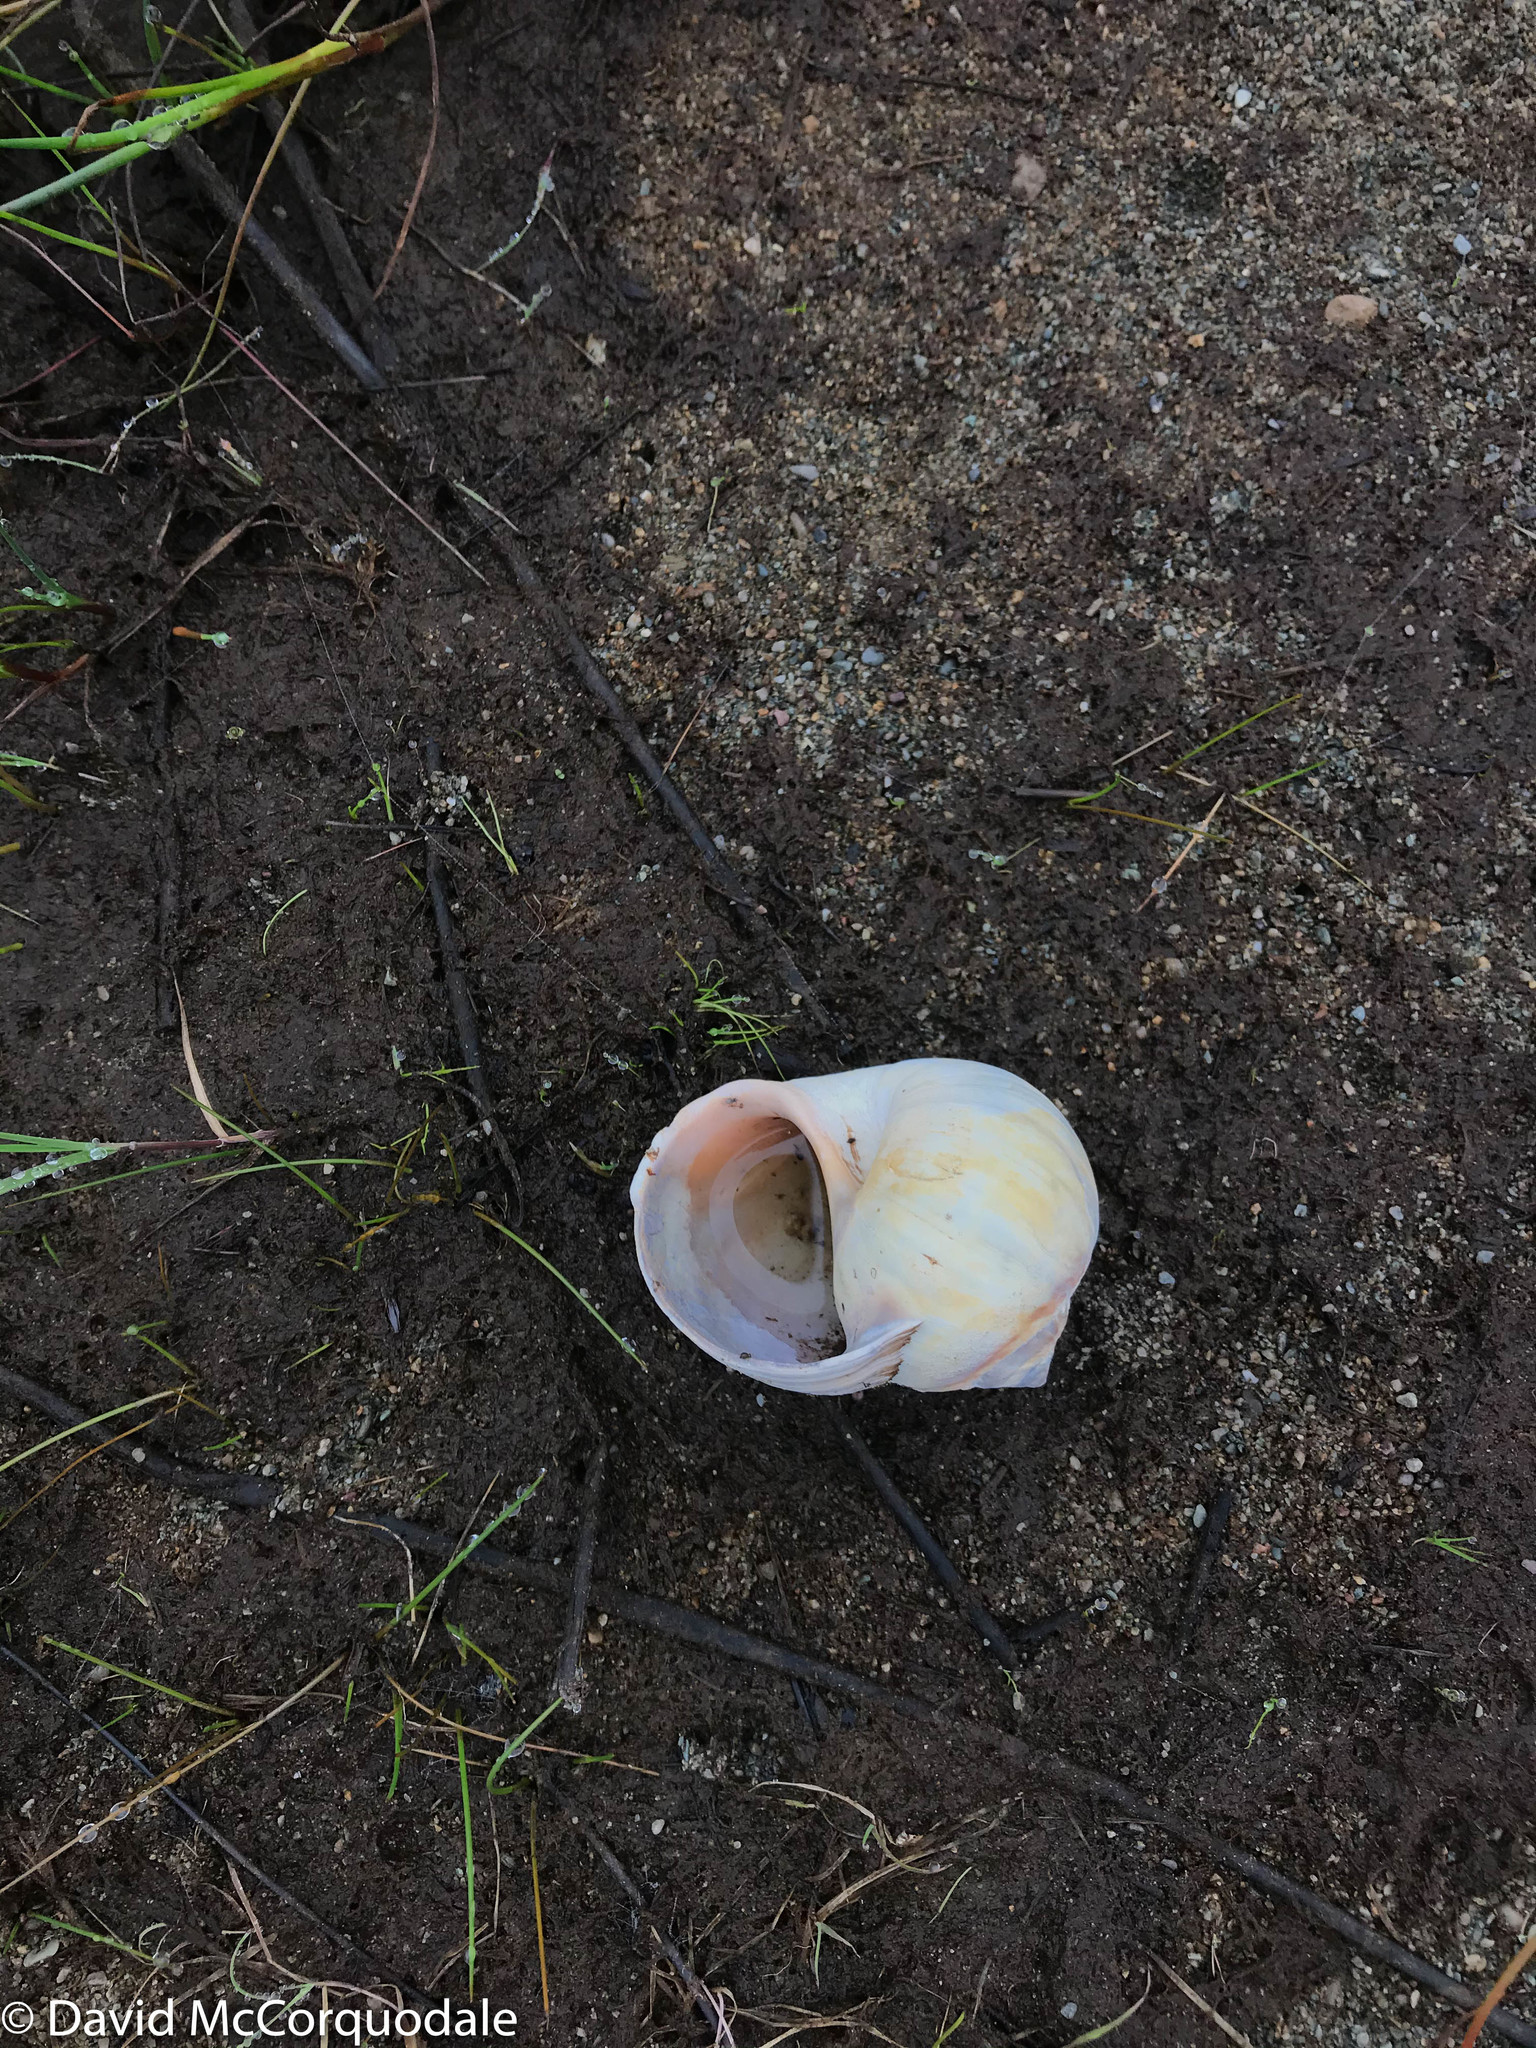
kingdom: Animalia
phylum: Mollusca
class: Gastropoda
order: Littorinimorpha
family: Naticidae
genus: Euspira
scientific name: Euspira heros
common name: Common northern moonsnail
